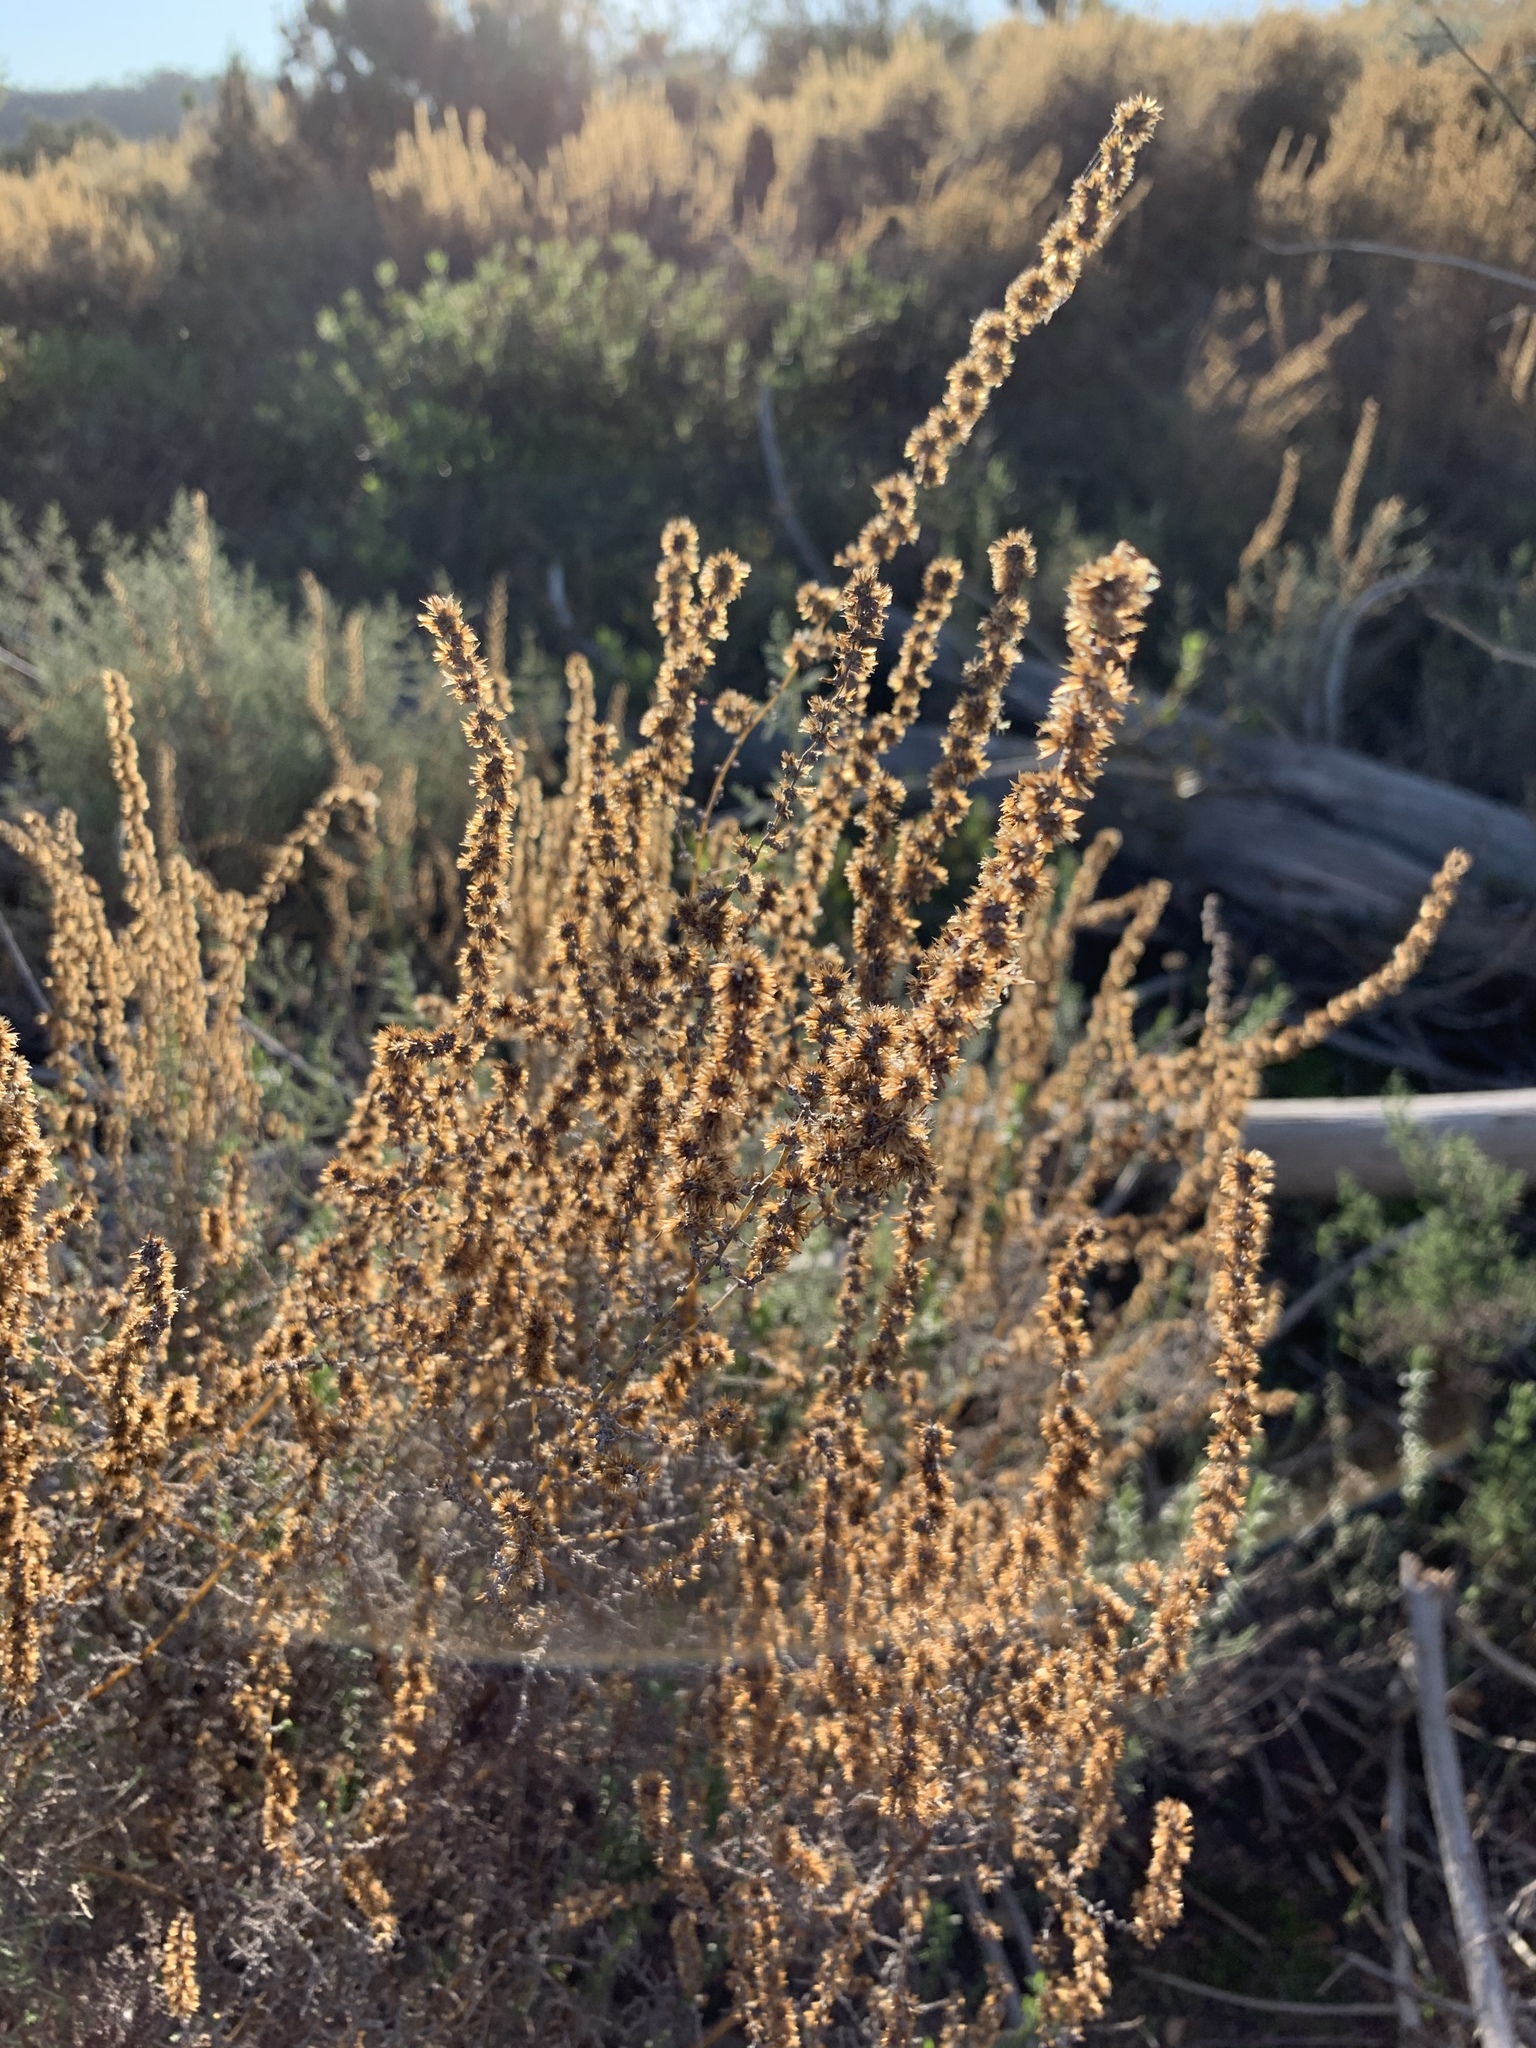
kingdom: Plantae
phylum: Tracheophyta
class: Magnoliopsida
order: Asterales
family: Asteraceae
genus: Seriphium
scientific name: Seriphium plumosum
